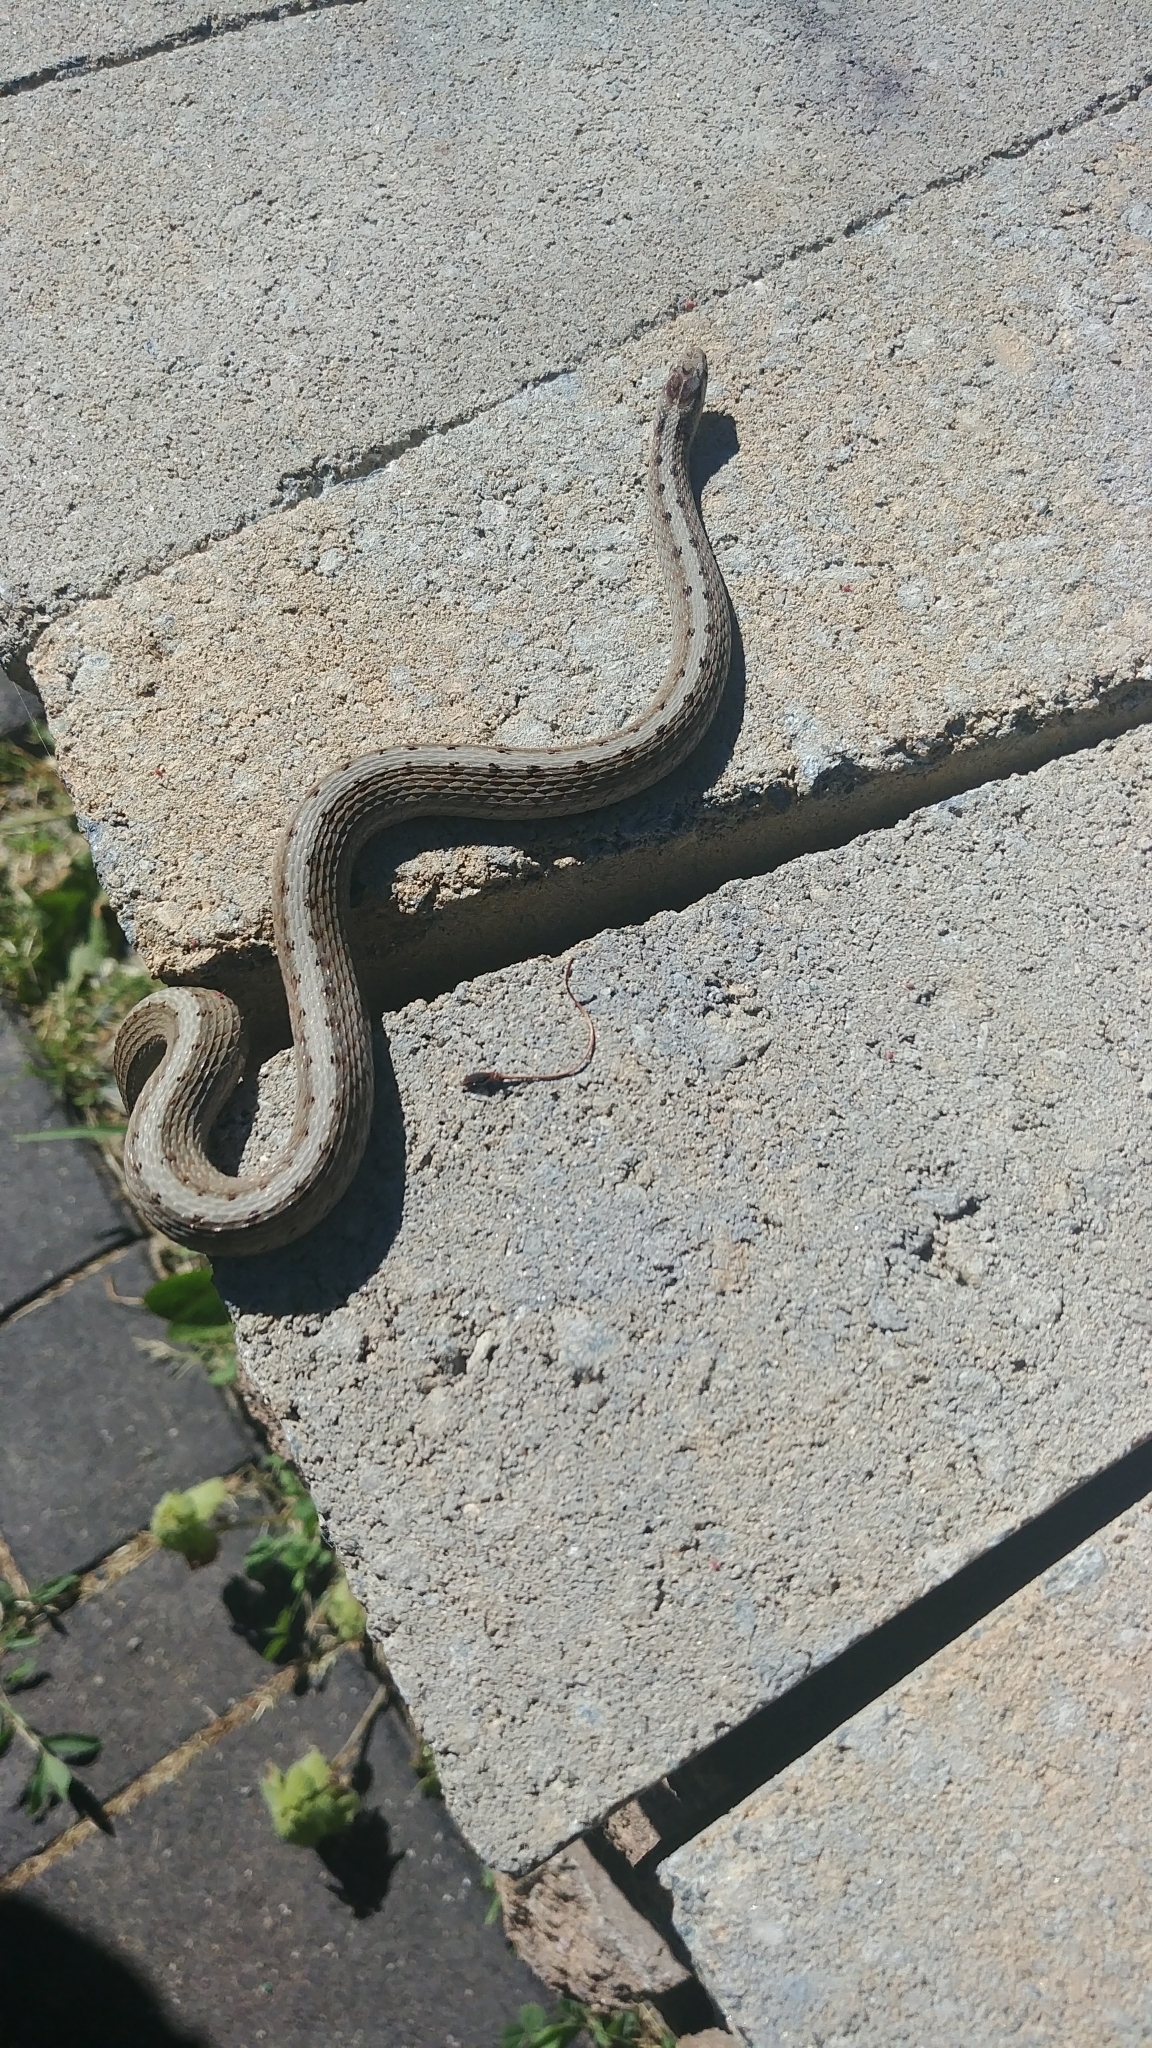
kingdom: Animalia
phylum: Chordata
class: Squamata
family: Colubridae
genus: Storeria
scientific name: Storeria dekayi
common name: (dekay’s) brown snake
